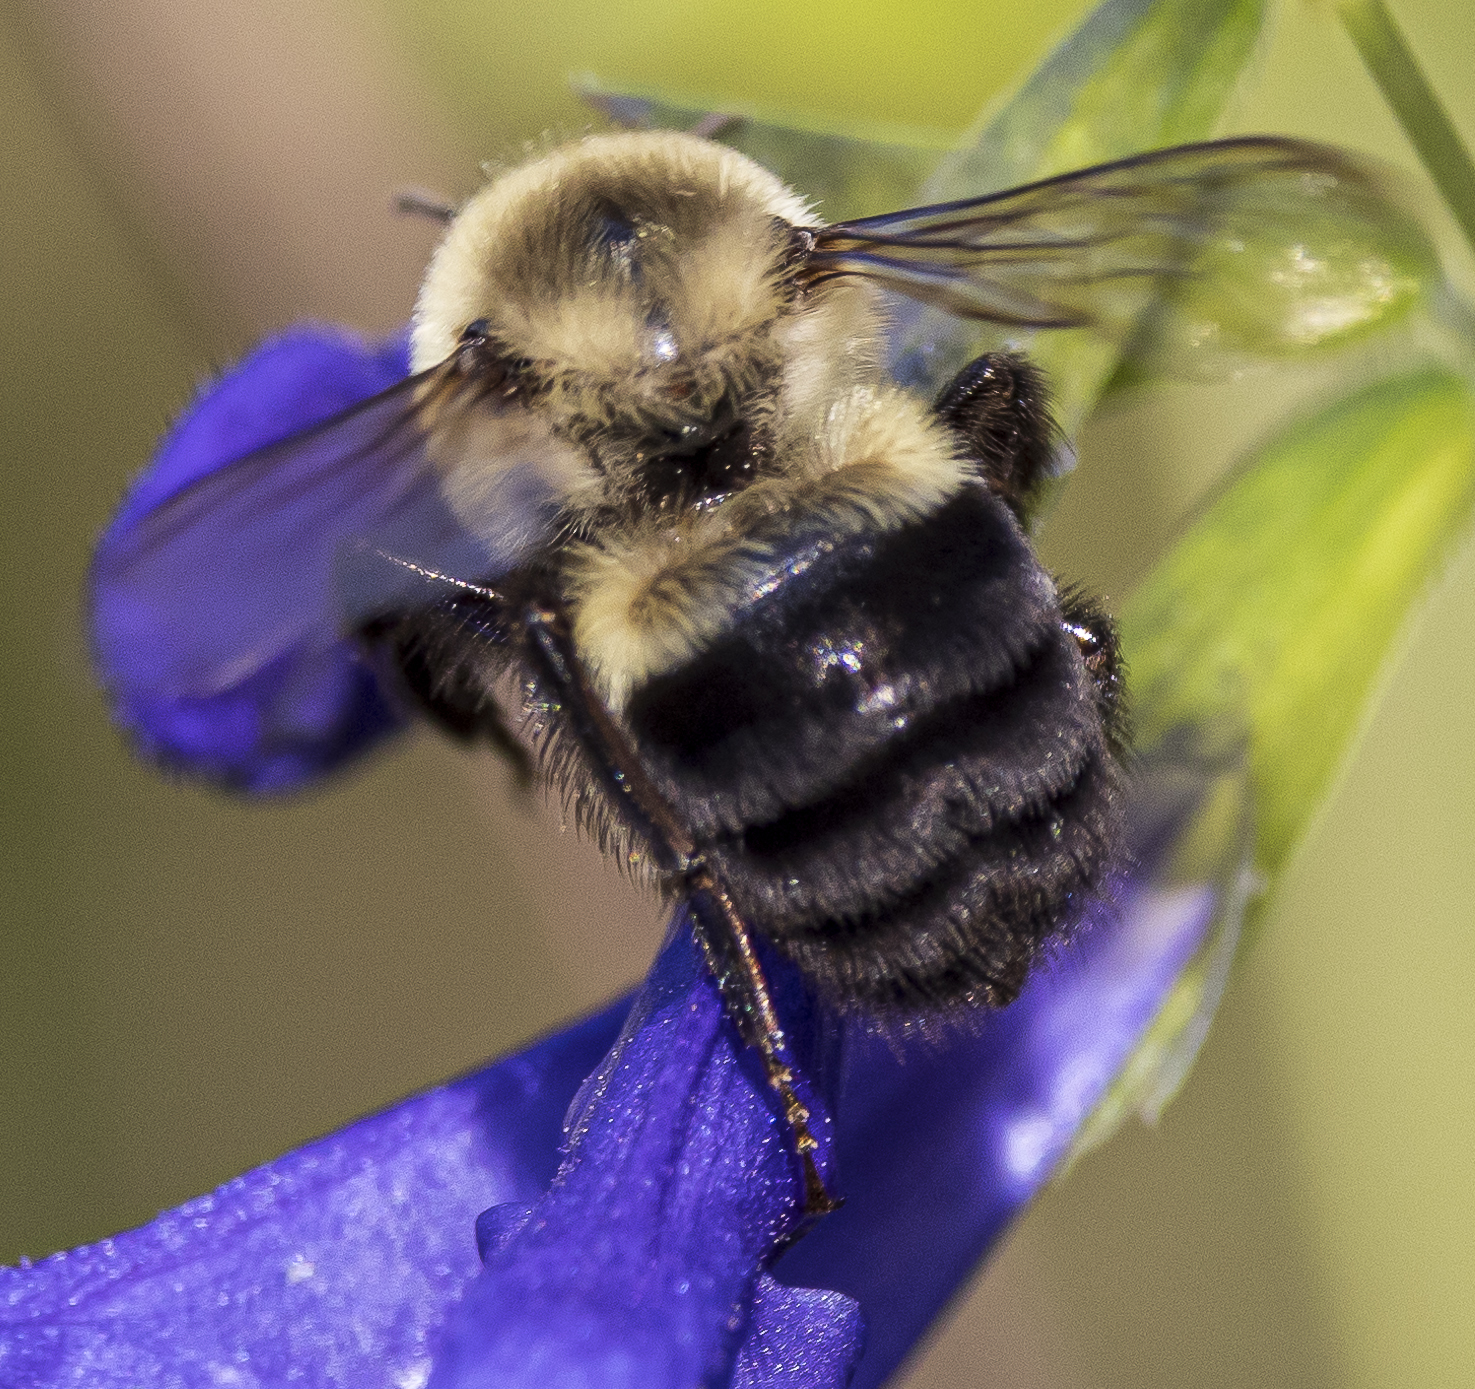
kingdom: Animalia
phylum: Arthropoda
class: Insecta
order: Hymenoptera
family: Apidae
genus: Bombus
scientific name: Bombus impatiens
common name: Common eastern bumble bee
